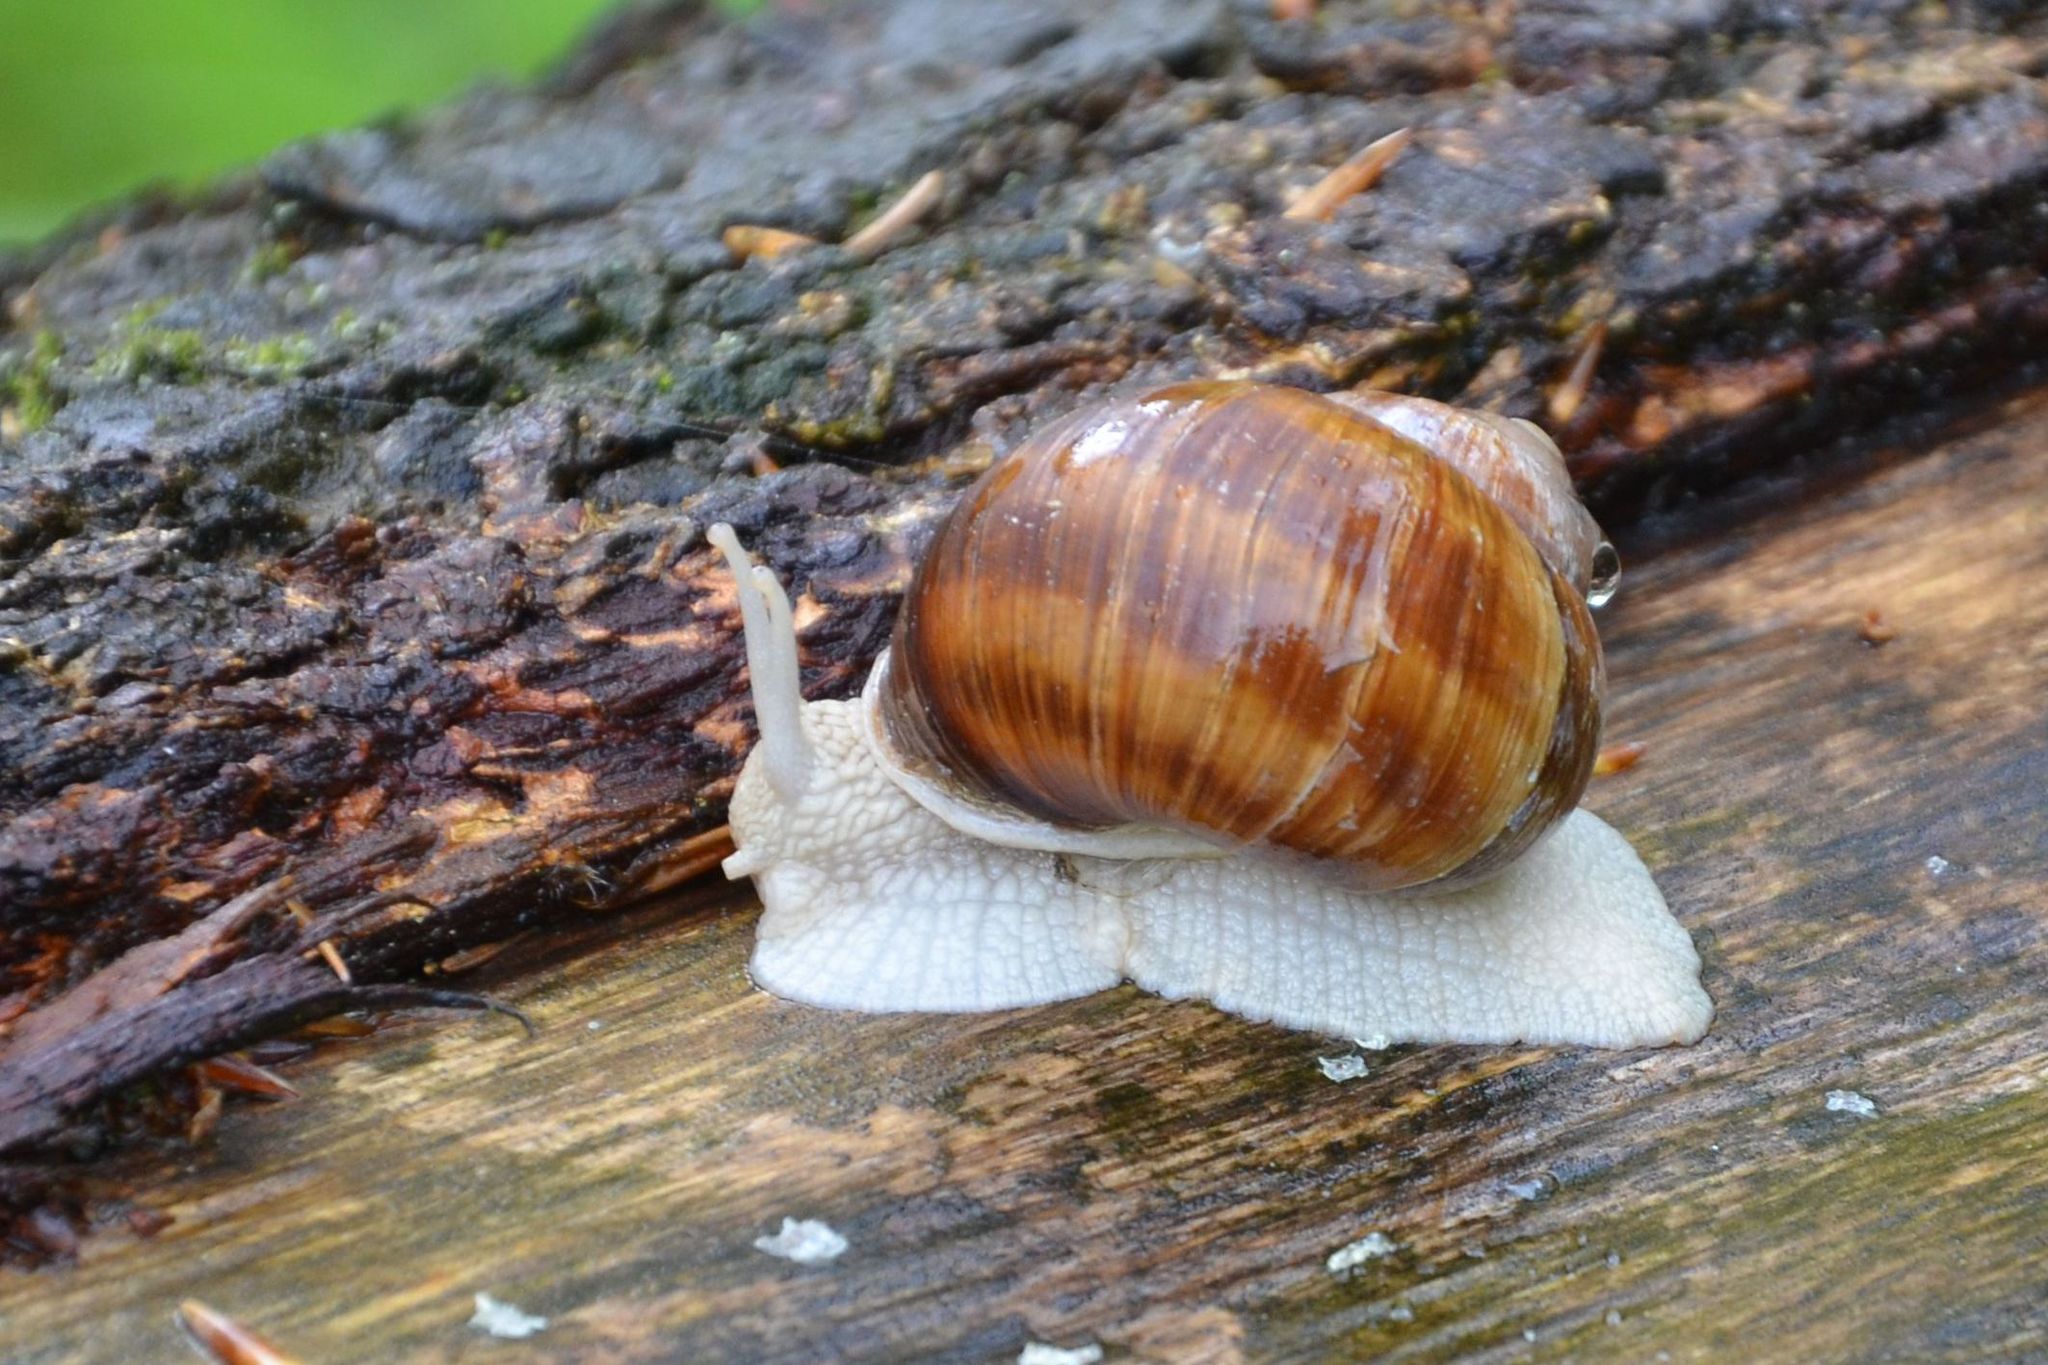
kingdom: Animalia
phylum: Mollusca
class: Gastropoda
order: Stylommatophora
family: Helicidae
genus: Helix
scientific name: Helix pomatia
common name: Roman snail
